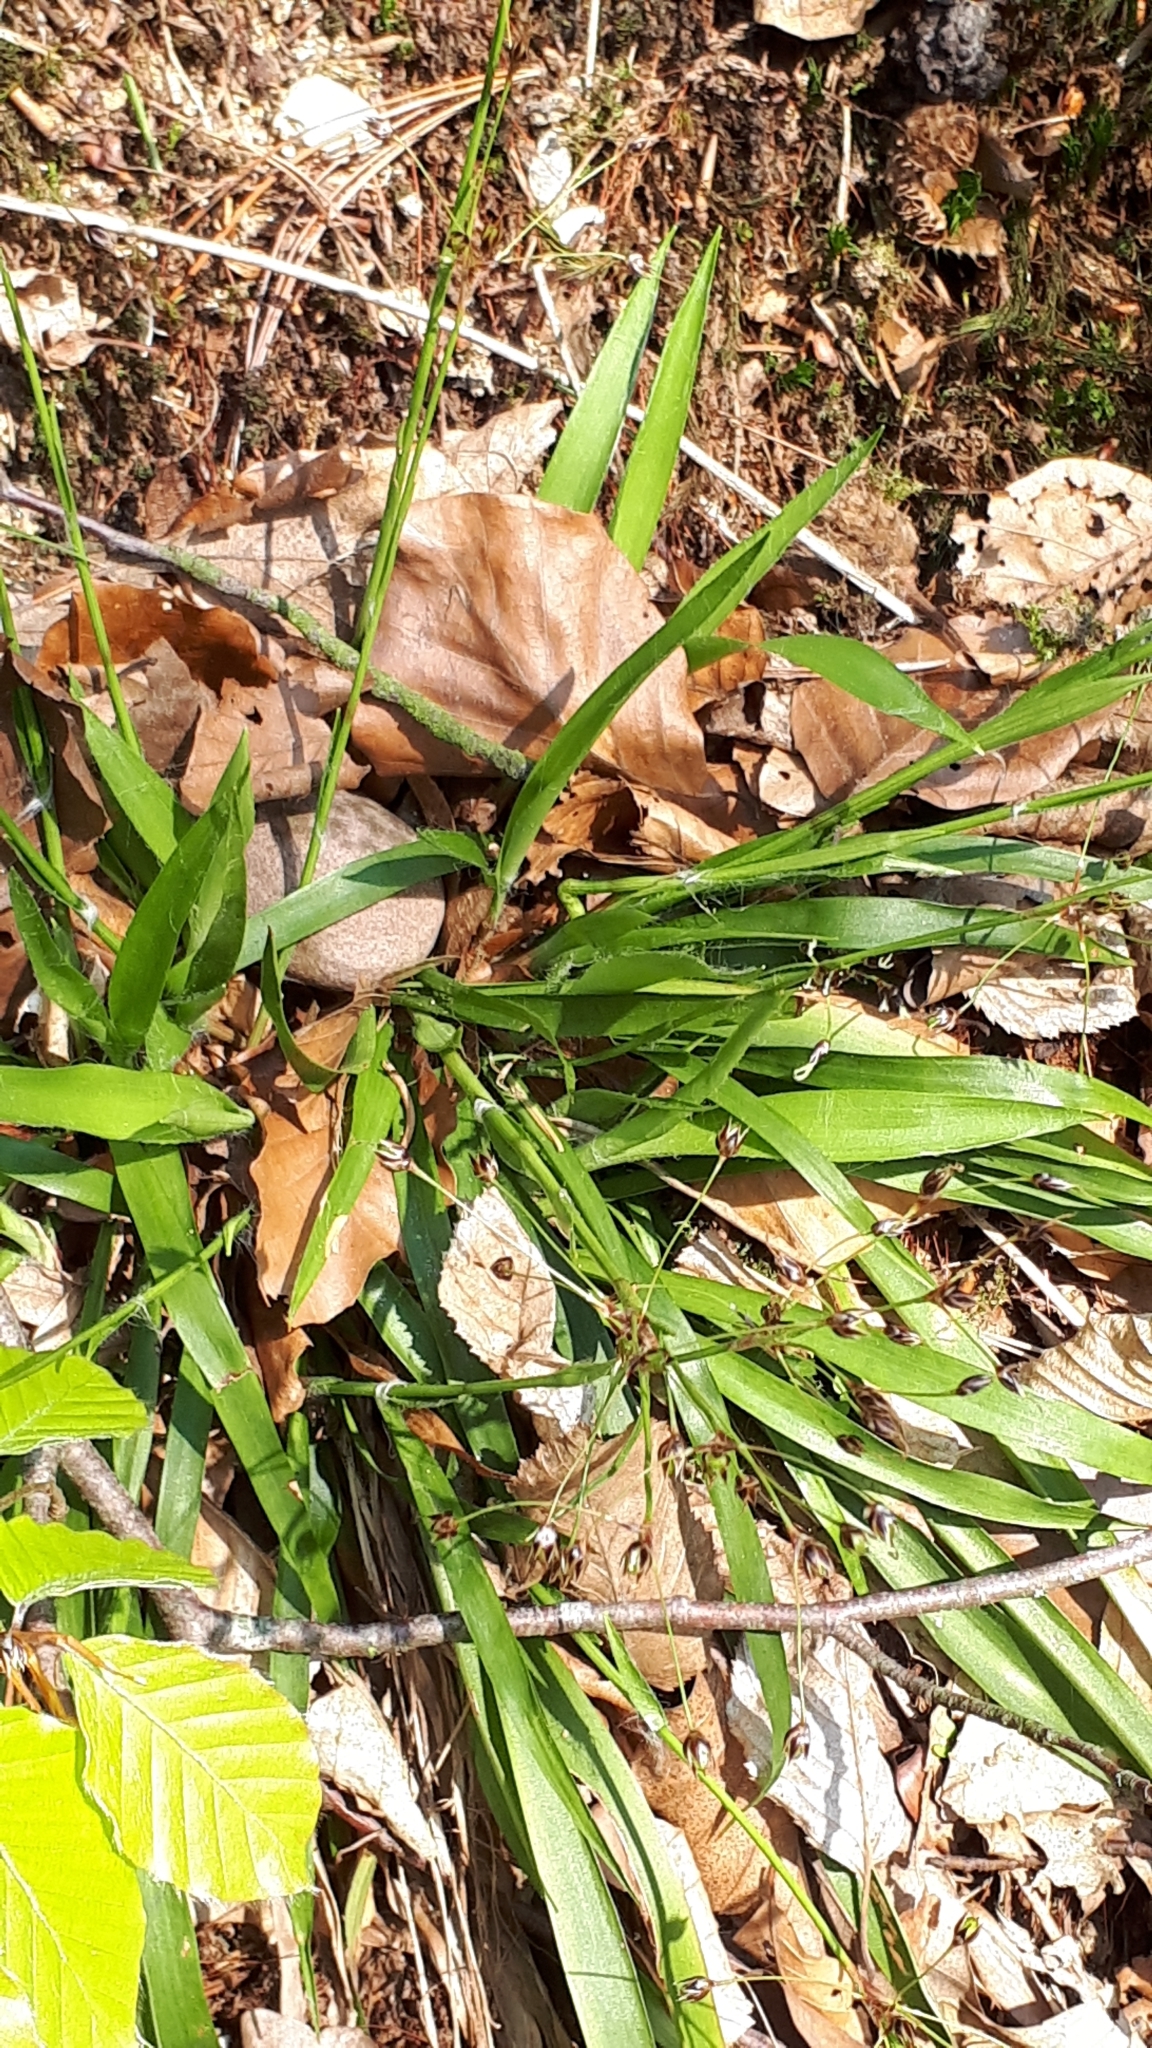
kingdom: Plantae
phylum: Tracheophyta
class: Liliopsida
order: Poales
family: Juncaceae
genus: Luzula
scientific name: Luzula pilosa
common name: Hairy wood-rush
